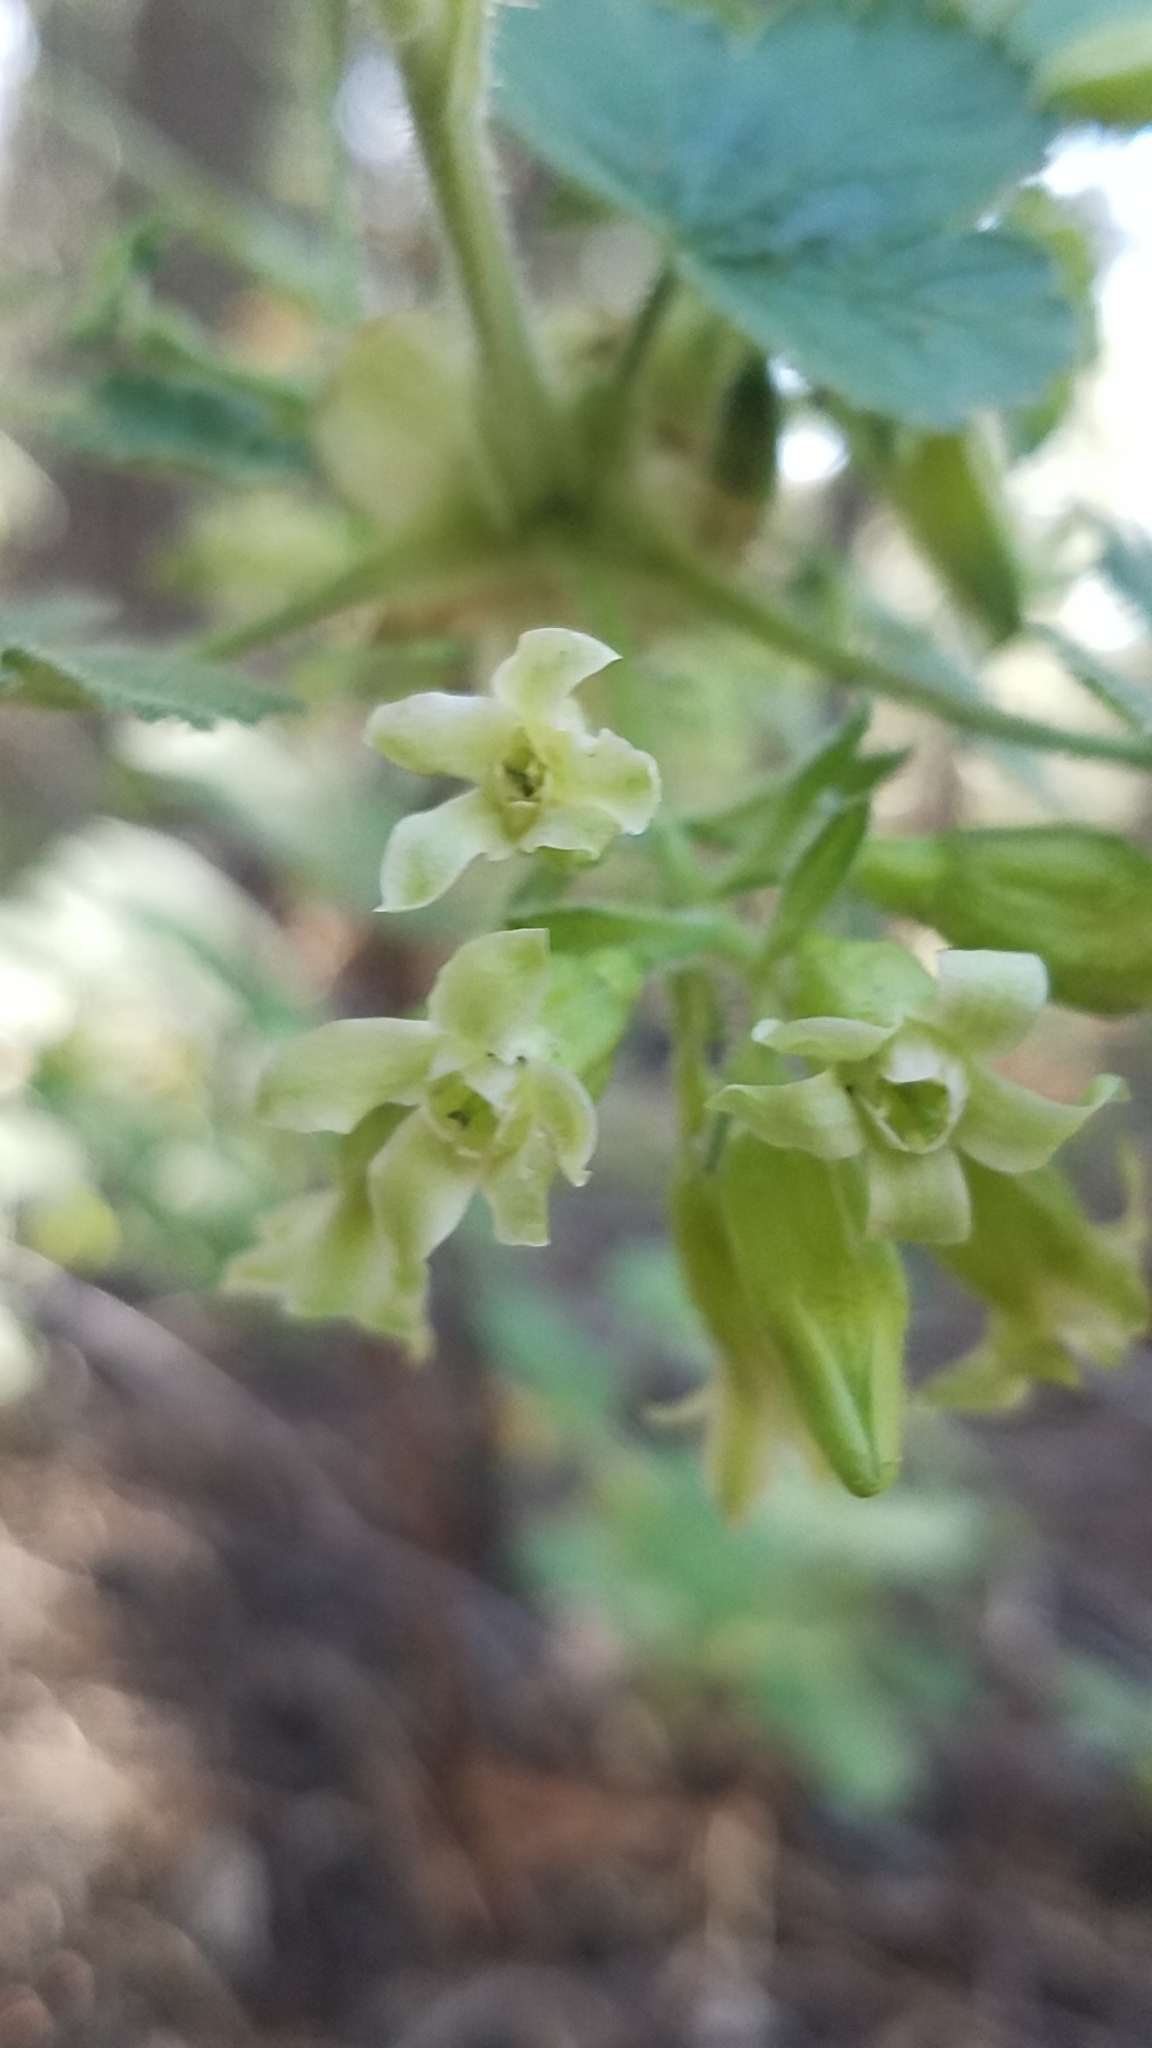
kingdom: Plantae
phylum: Tracheophyta
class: Magnoliopsida
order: Saxifragales
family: Grossulariaceae
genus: Ribes
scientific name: Ribes viscosissimum
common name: Sticky currant
